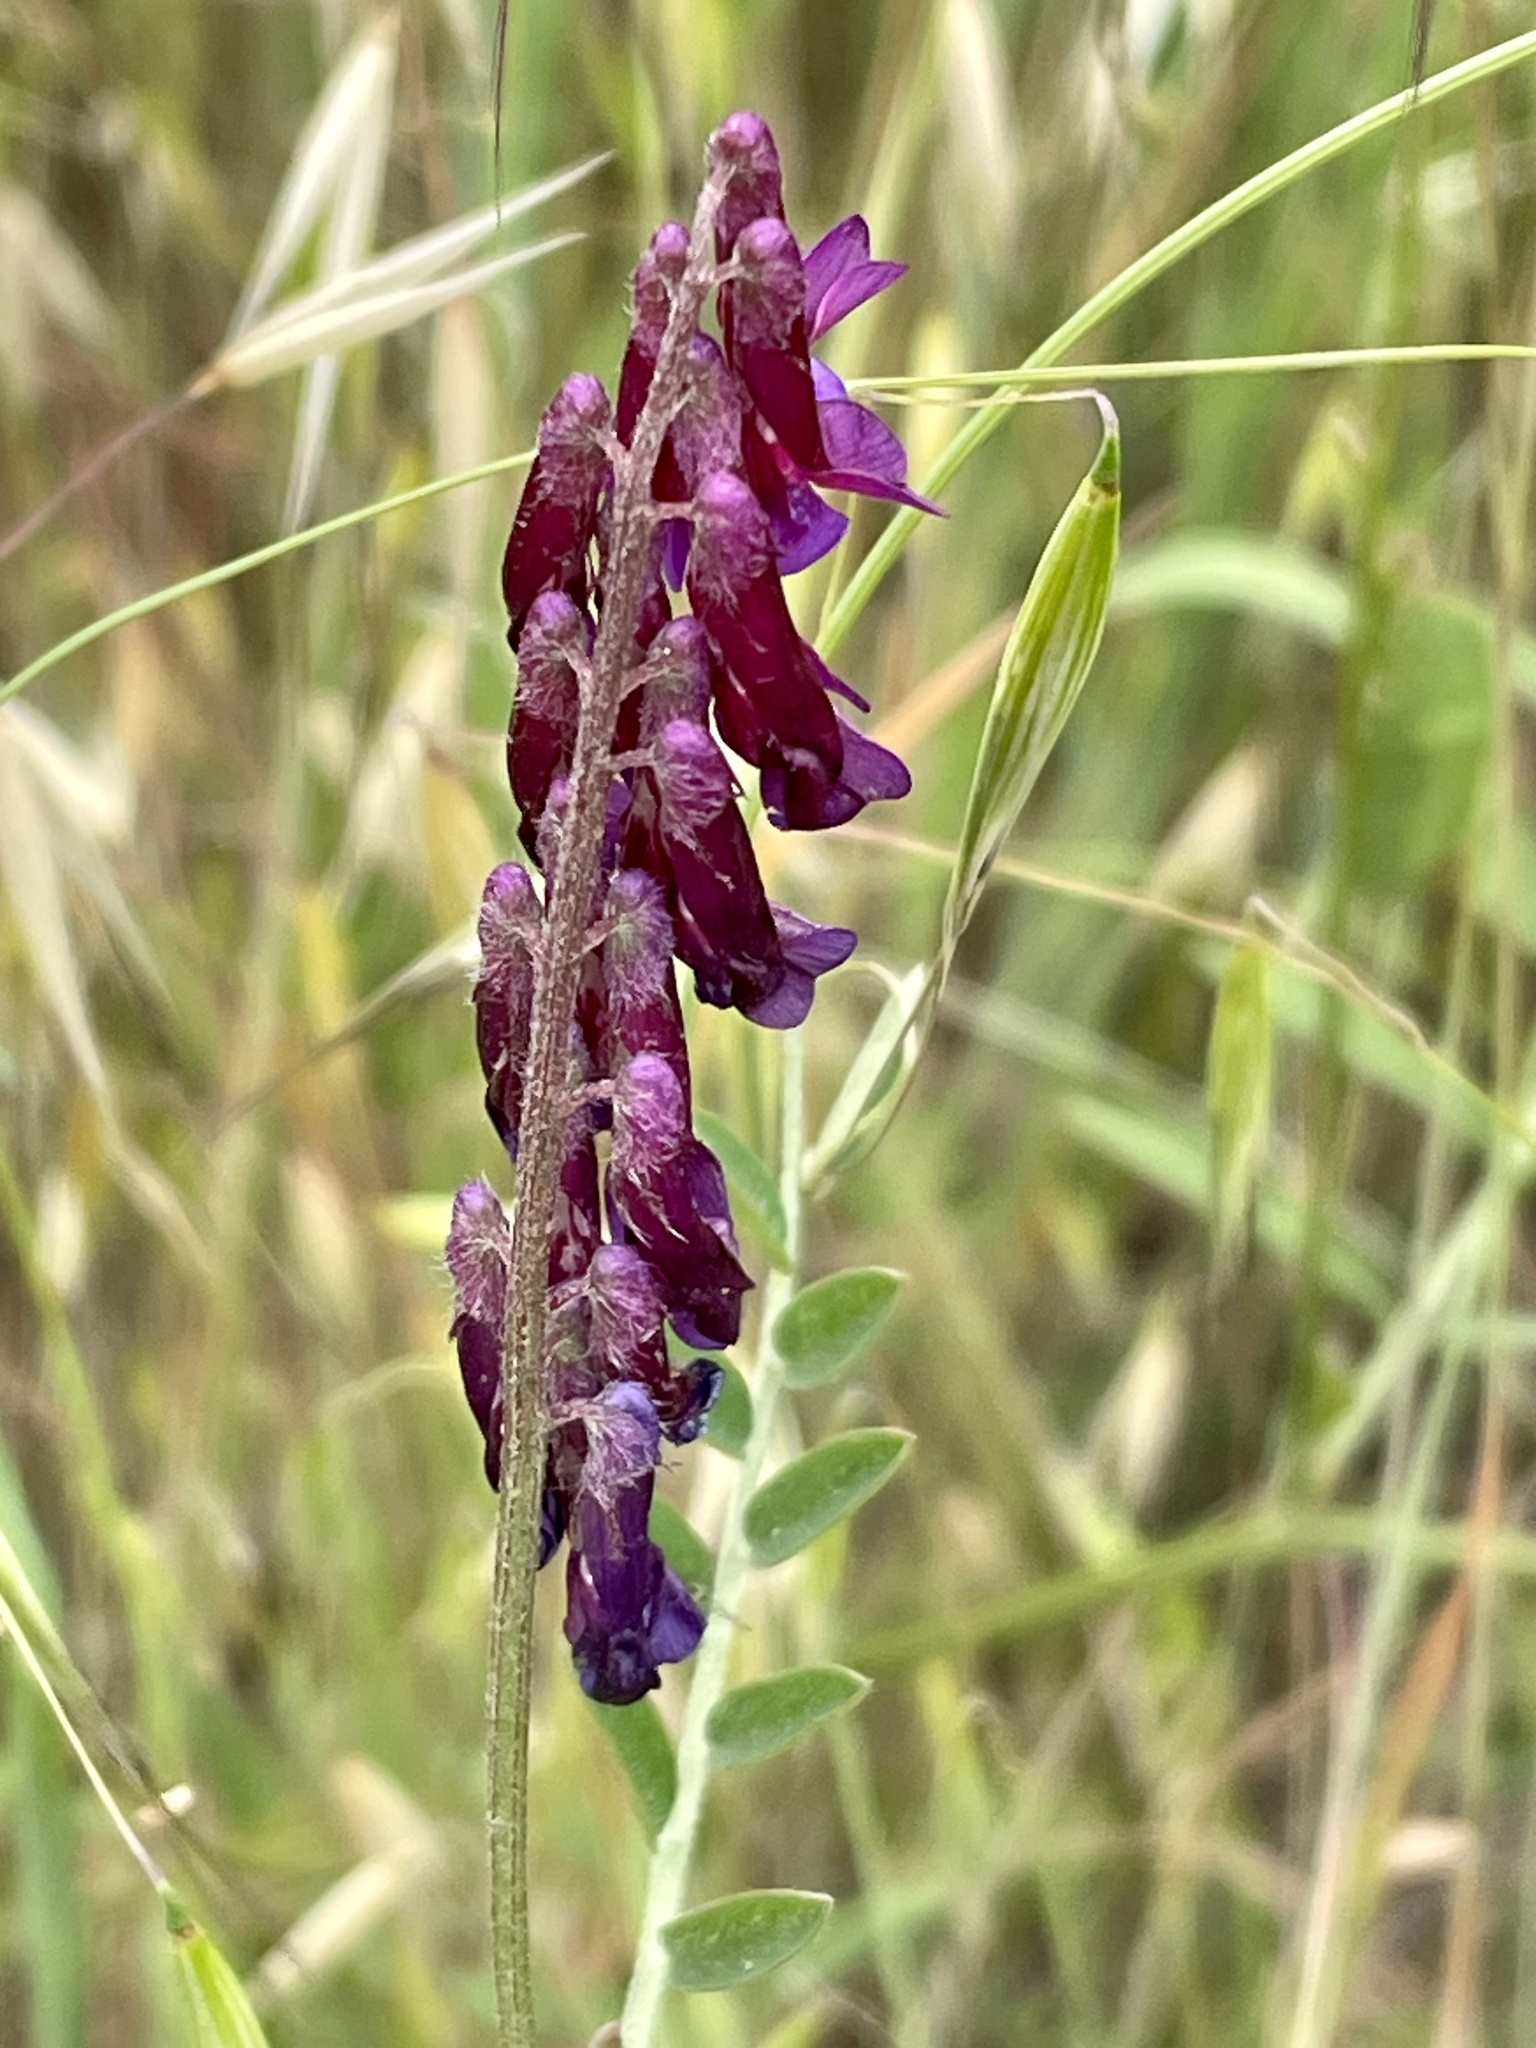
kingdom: Plantae
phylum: Tracheophyta
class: Magnoliopsida
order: Fabales
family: Fabaceae
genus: Vicia
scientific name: Vicia villosa
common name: Fodder vetch
